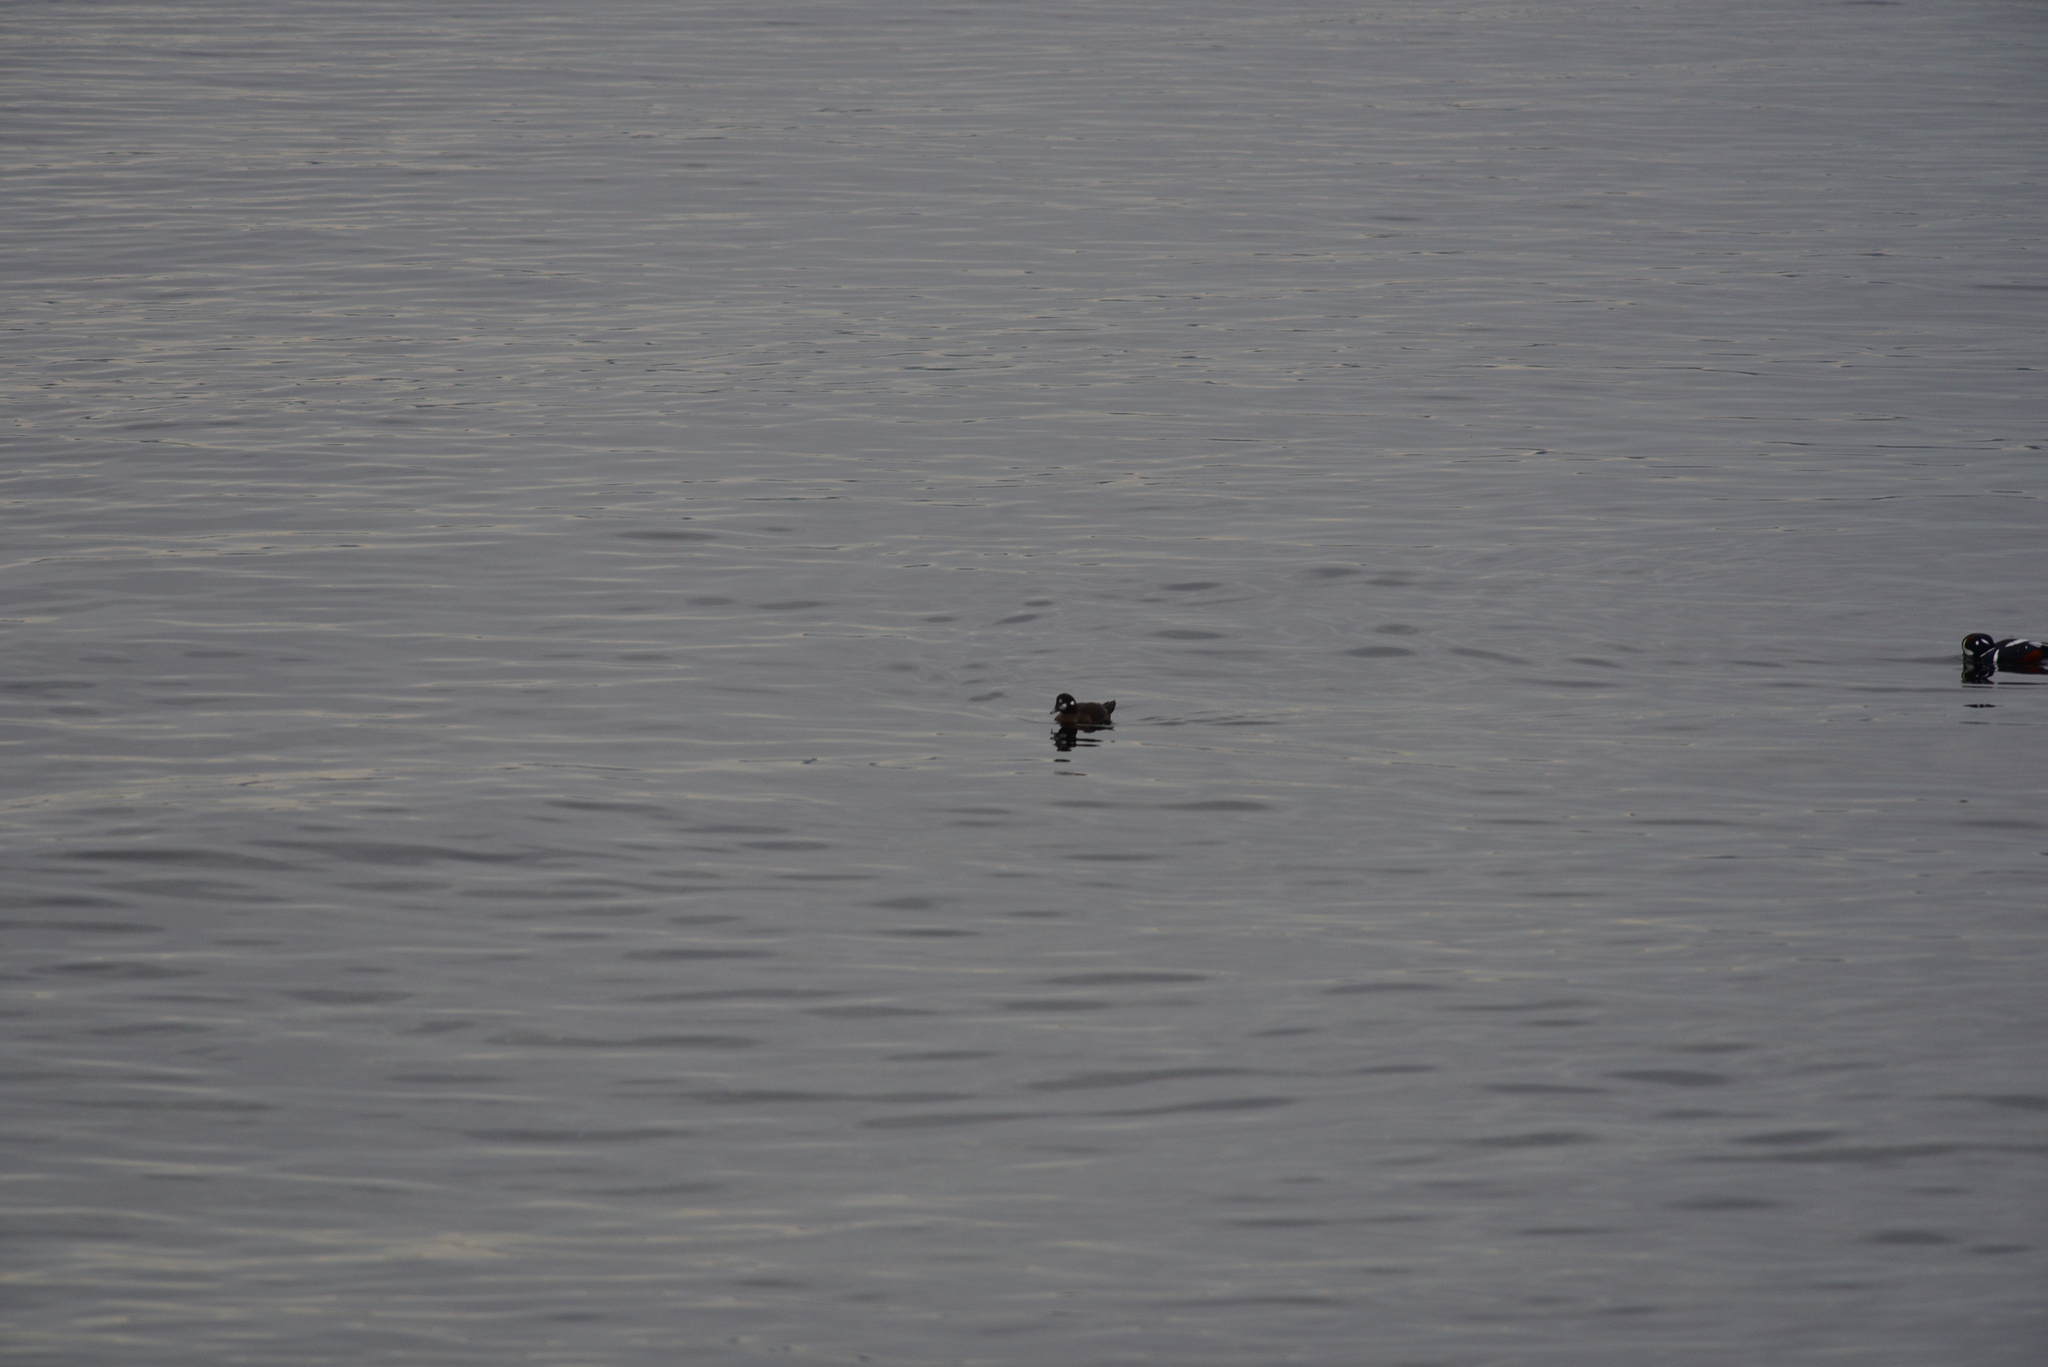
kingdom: Animalia
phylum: Chordata
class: Aves
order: Anseriformes
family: Anatidae
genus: Histrionicus
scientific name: Histrionicus histrionicus
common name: Harlequin duck
